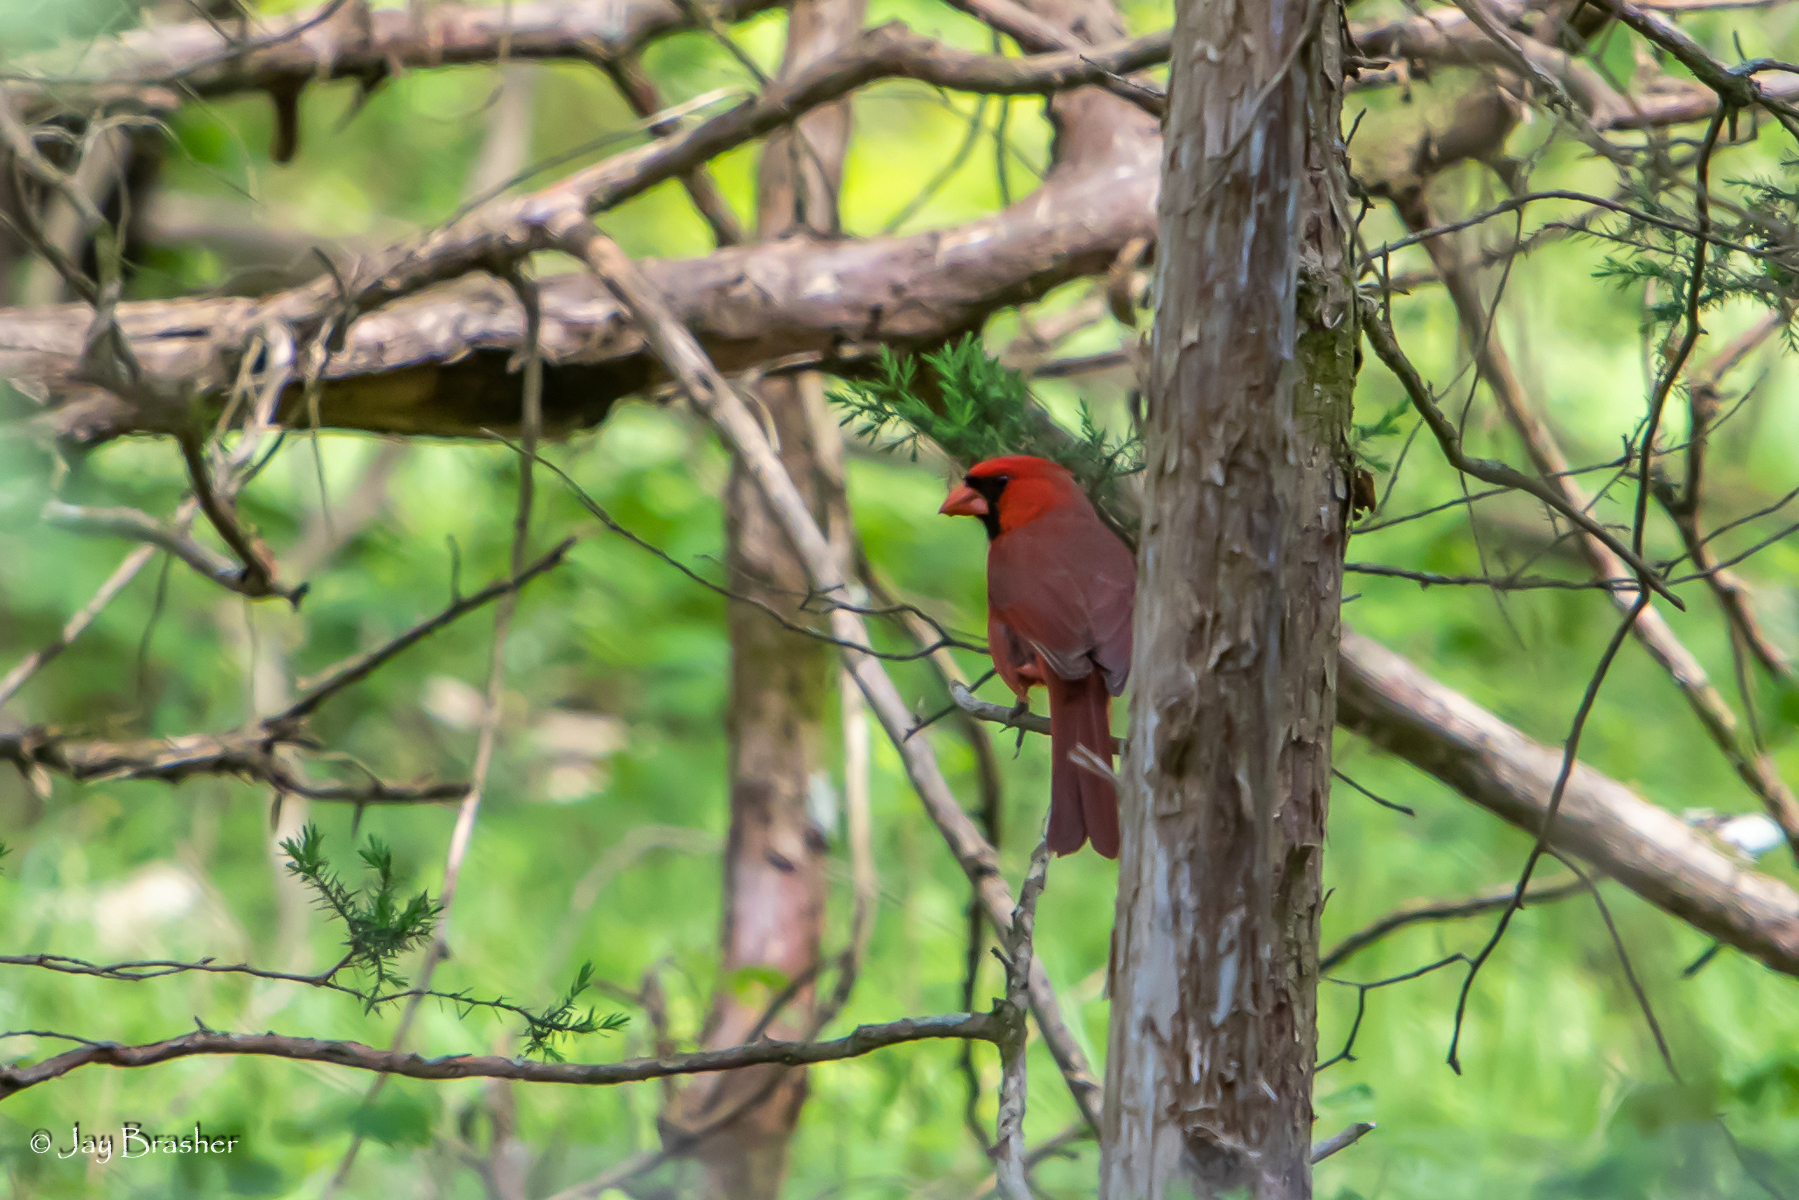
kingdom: Animalia
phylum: Chordata
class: Aves
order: Passeriformes
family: Cardinalidae
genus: Cardinalis
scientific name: Cardinalis cardinalis
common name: Northern cardinal
